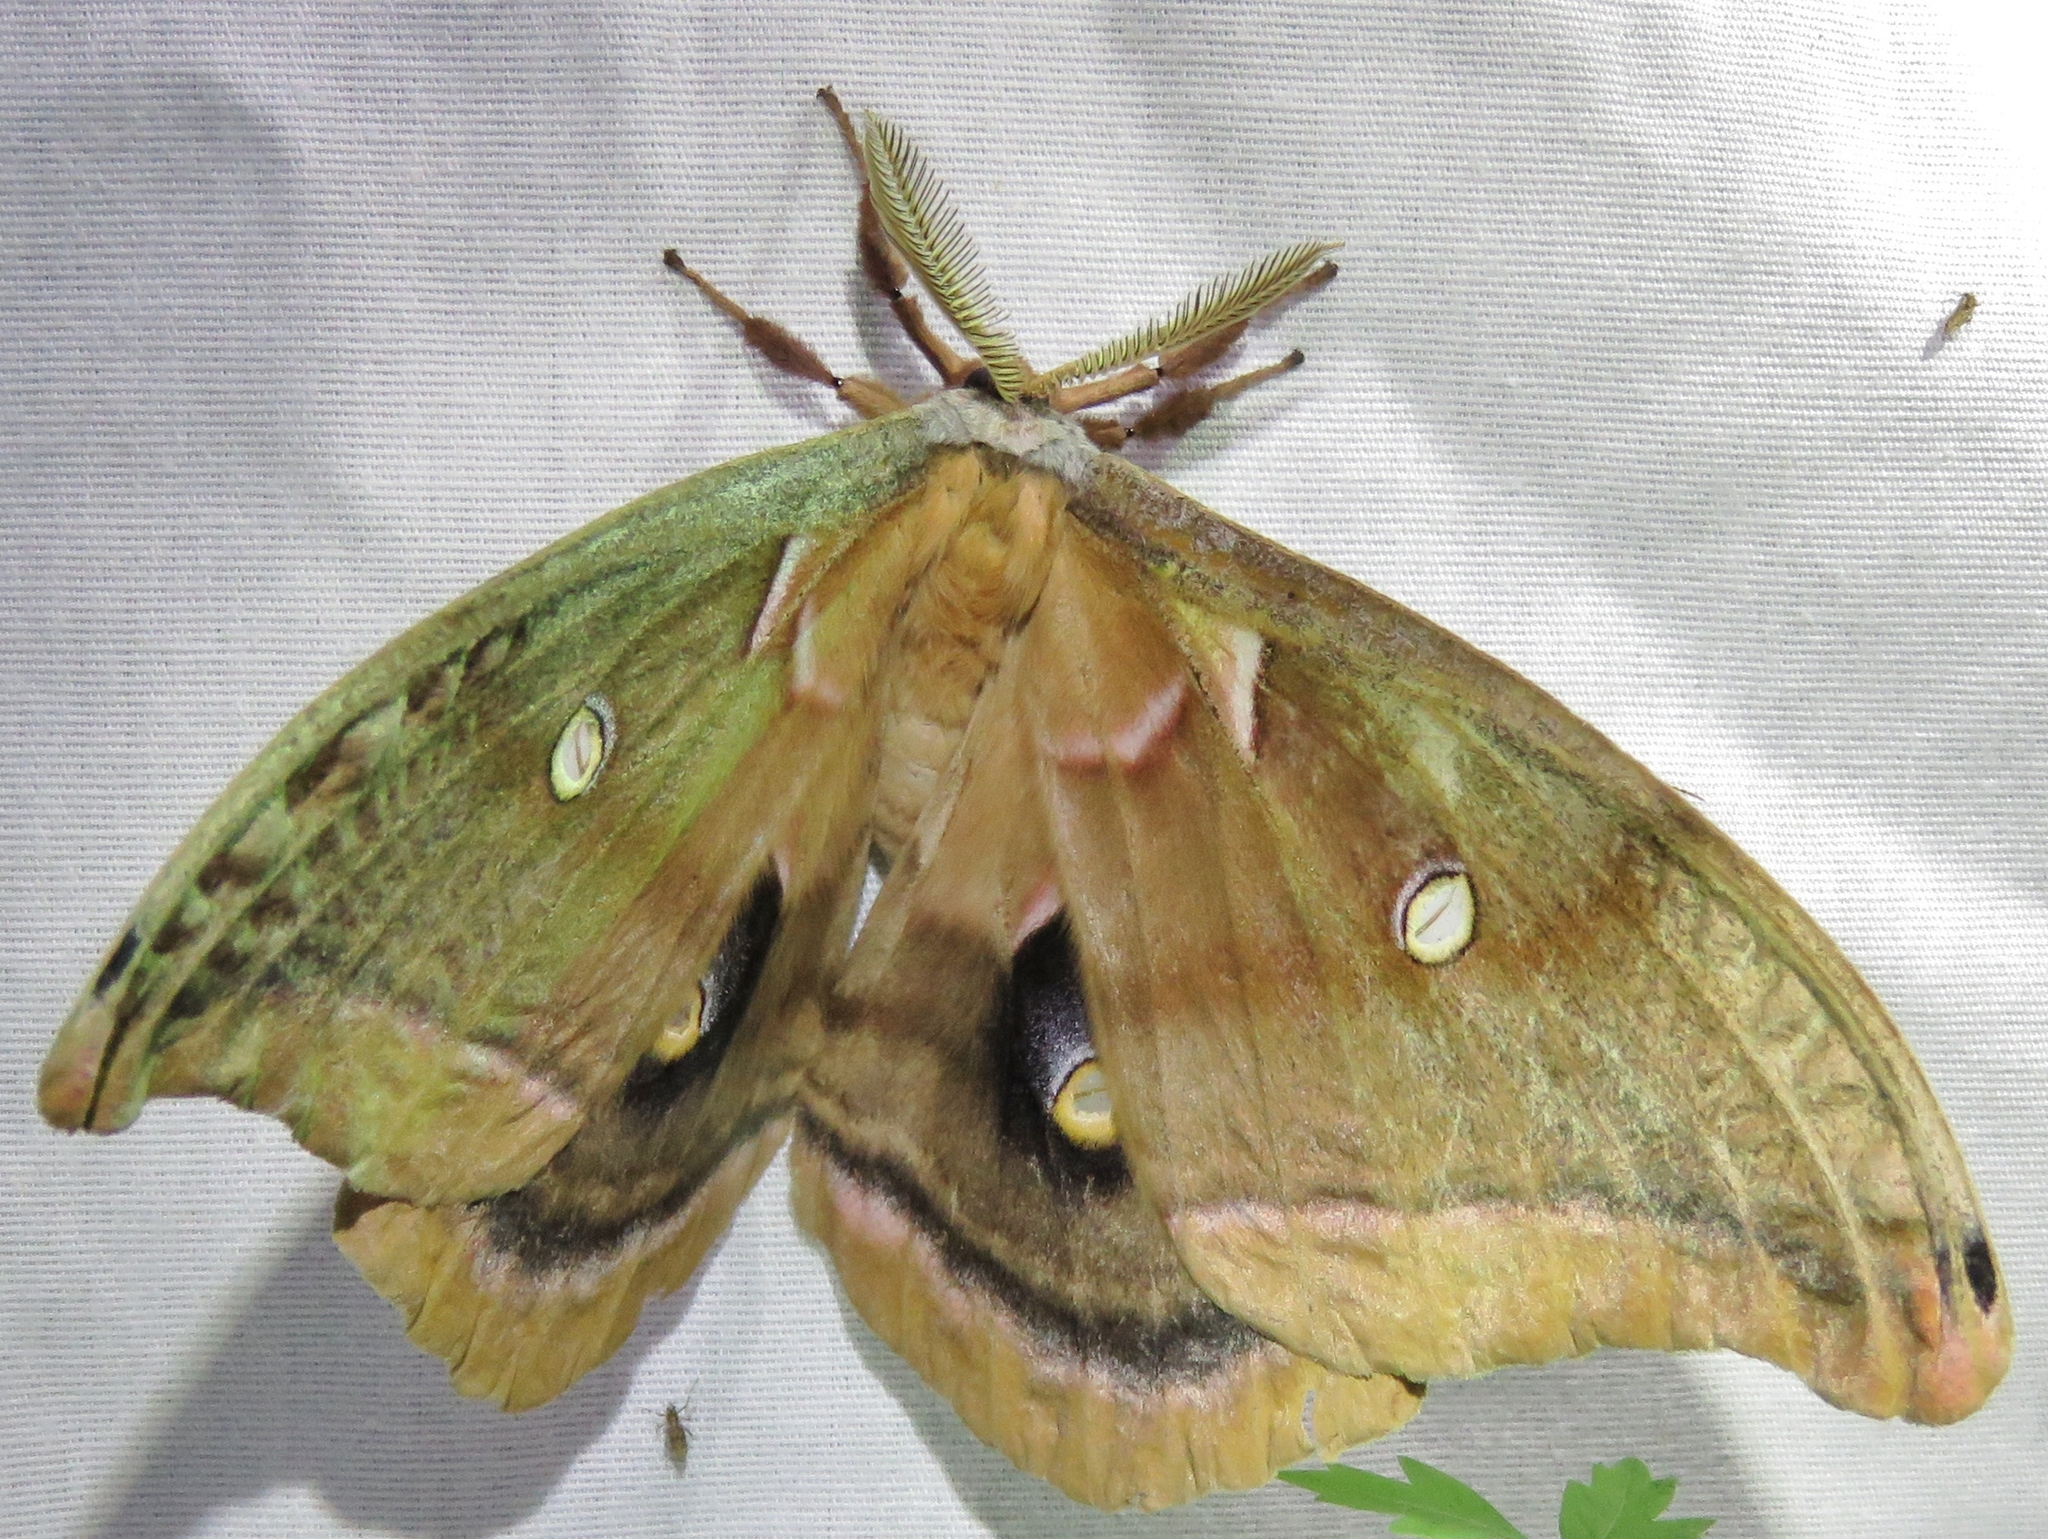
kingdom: Animalia
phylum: Arthropoda
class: Insecta
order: Lepidoptera
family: Saturniidae
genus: Antheraea
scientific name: Antheraea polyphemus
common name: Polyphemus moth
